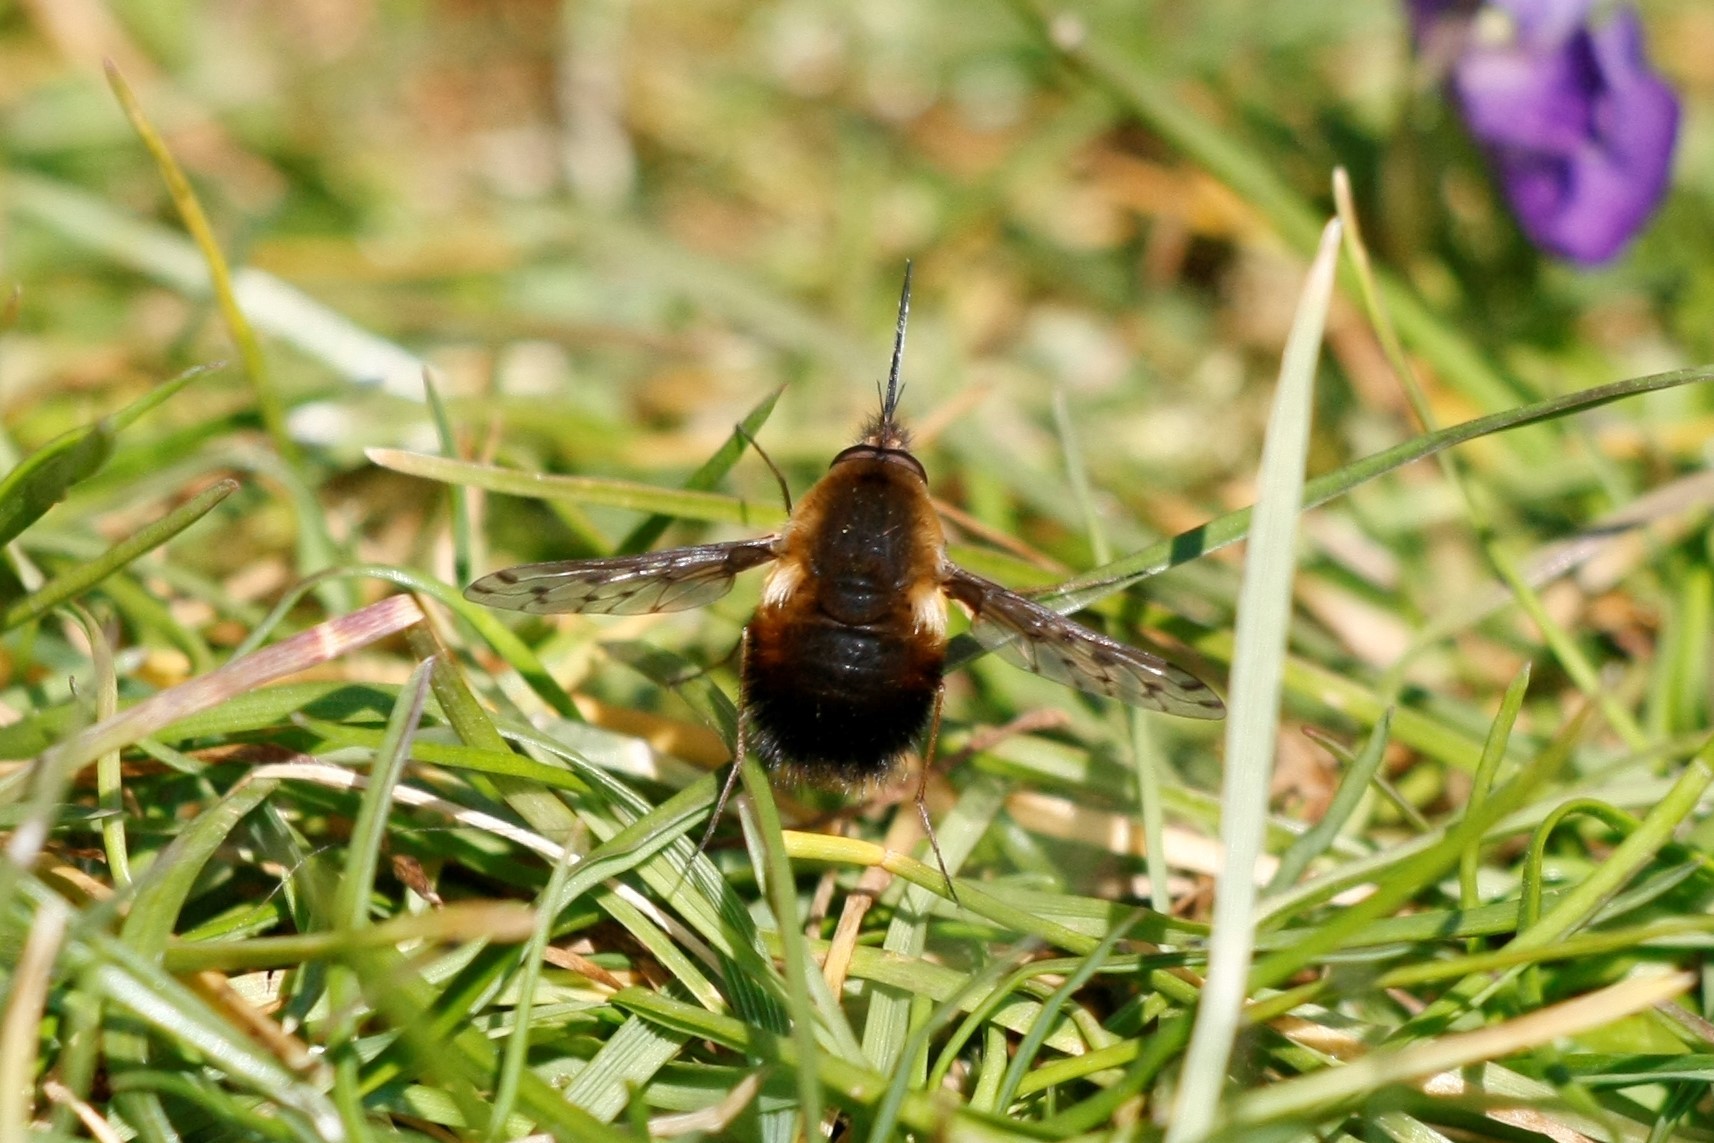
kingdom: Animalia
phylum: Arthropoda
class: Insecta
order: Diptera
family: Bombyliidae
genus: Bombylius
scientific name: Bombylius discolor
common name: Dotted bee-fly
